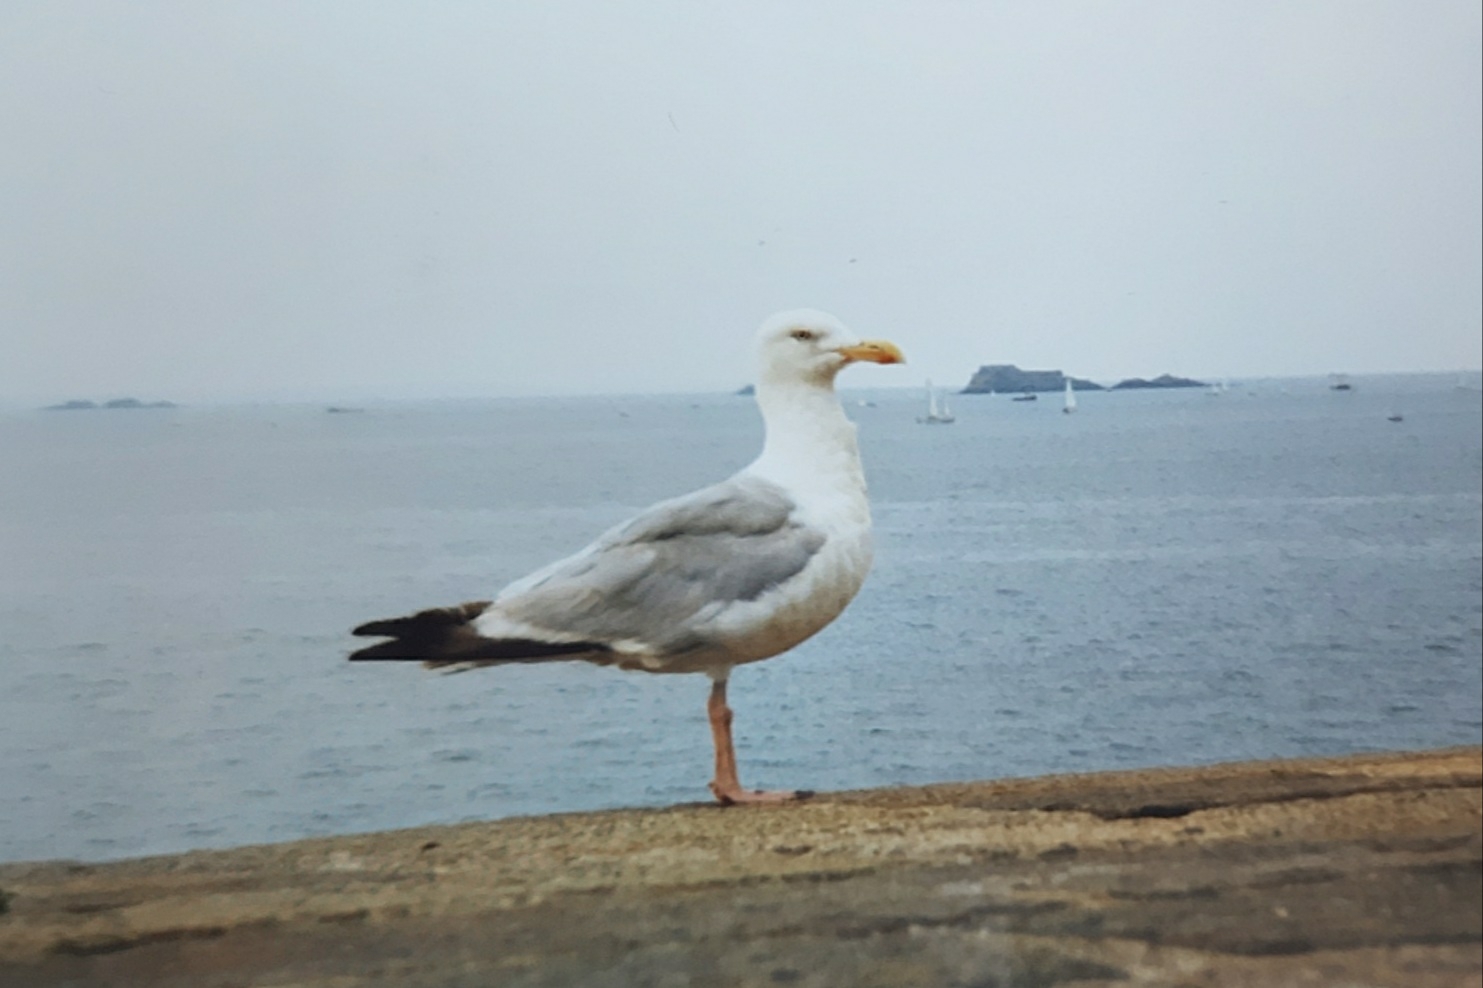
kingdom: Animalia
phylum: Chordata
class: Aves
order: Charadriiformes
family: Laridae
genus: Larus
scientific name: Larus argentatus
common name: Herring gull
